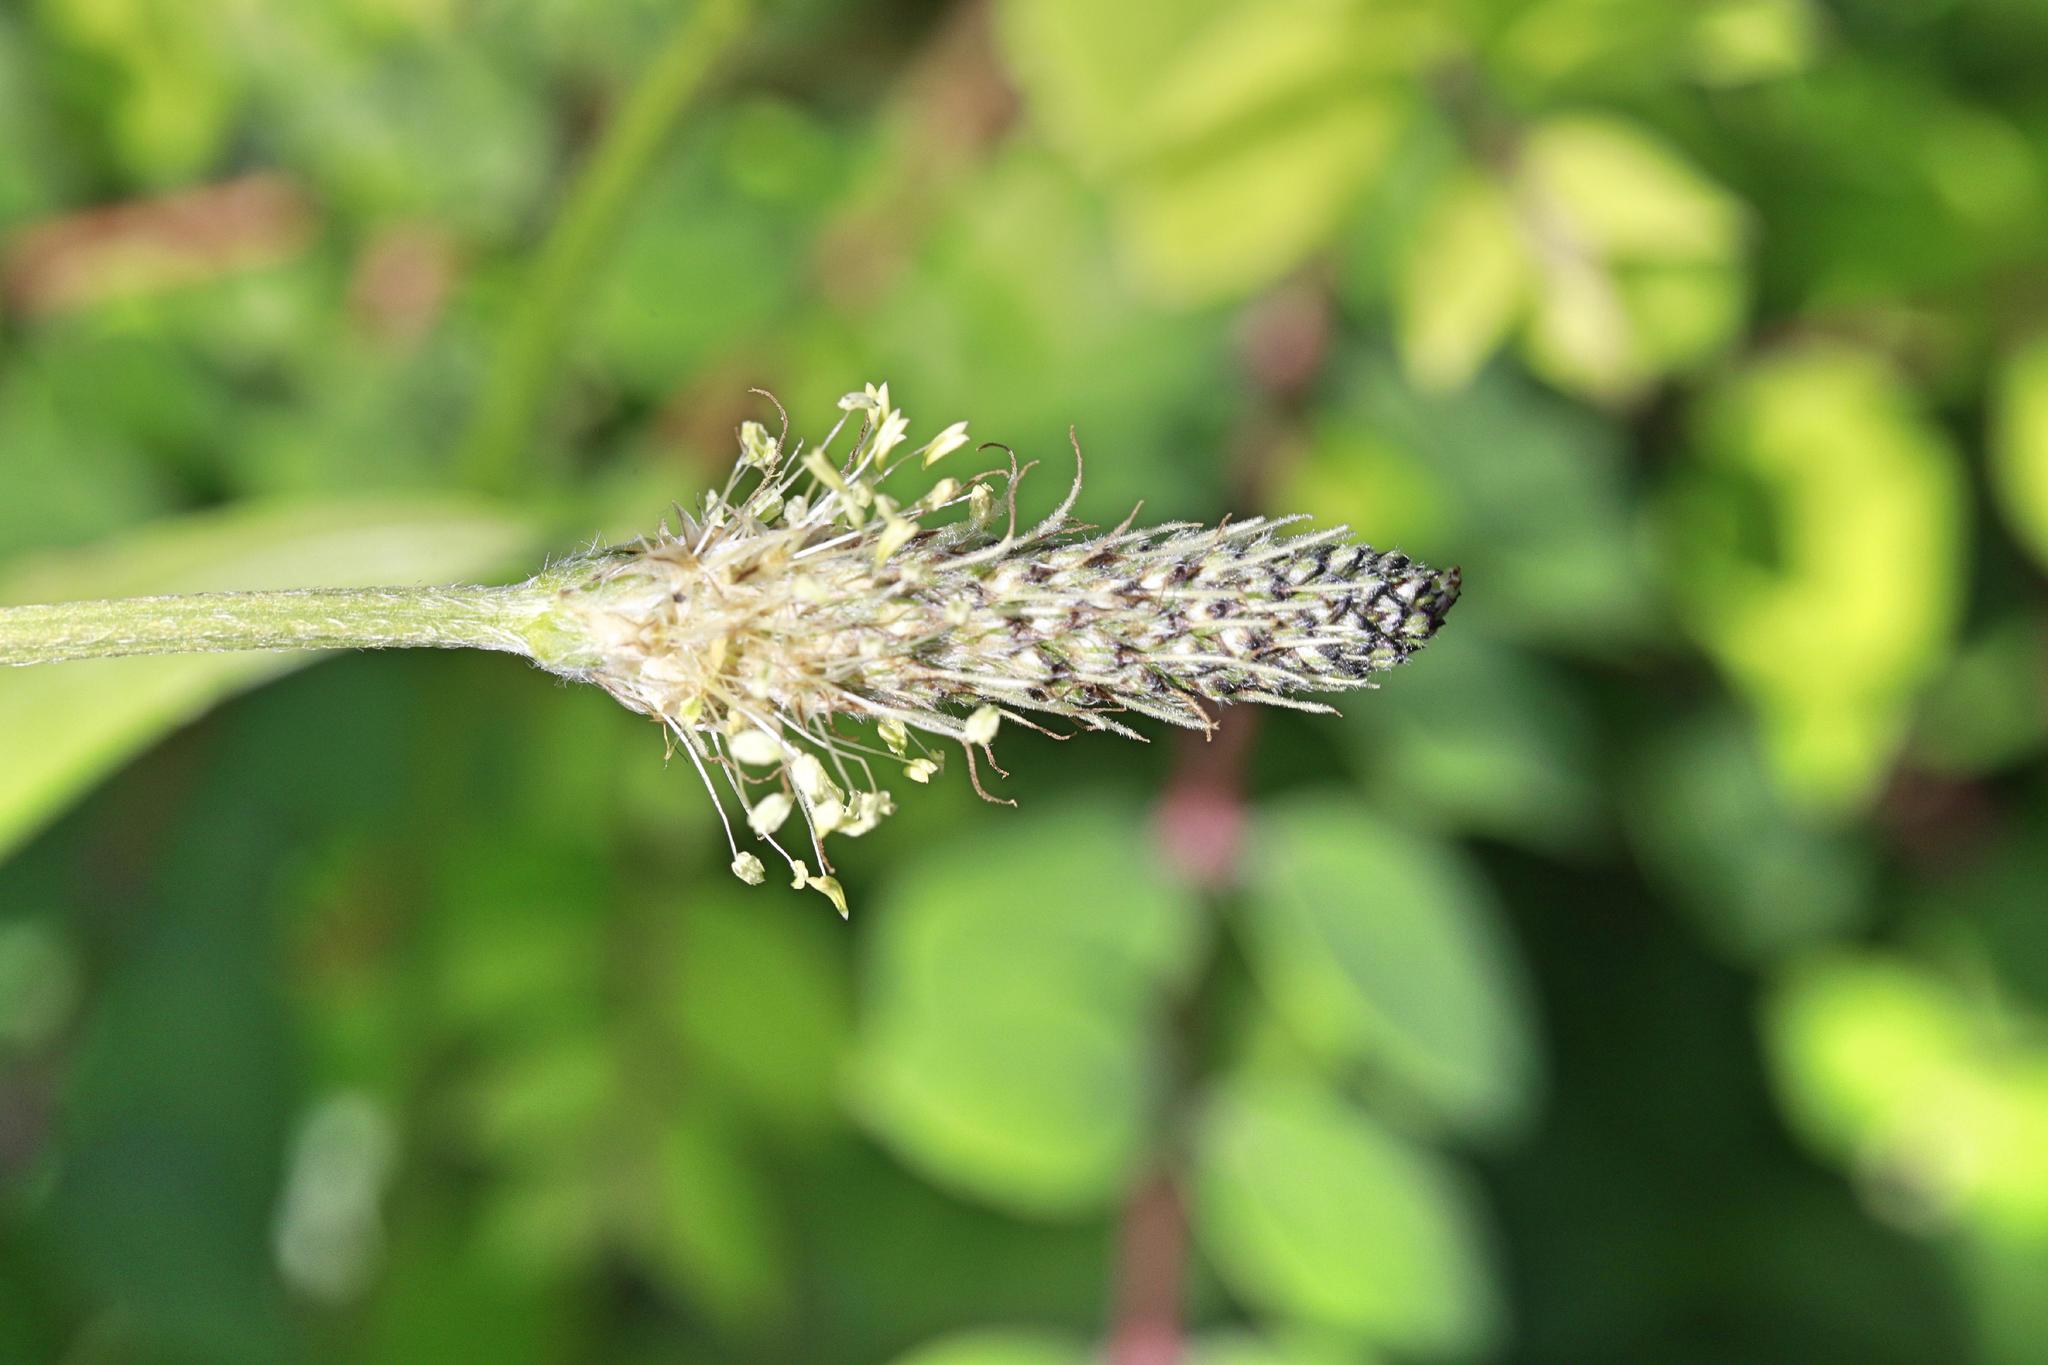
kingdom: Plantae
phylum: Tracheophyta
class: Magnoliopsida
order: Lamiales
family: Plantaginaceae
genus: Plantago
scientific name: Plantago lanceolata
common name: Ribwort plantain
